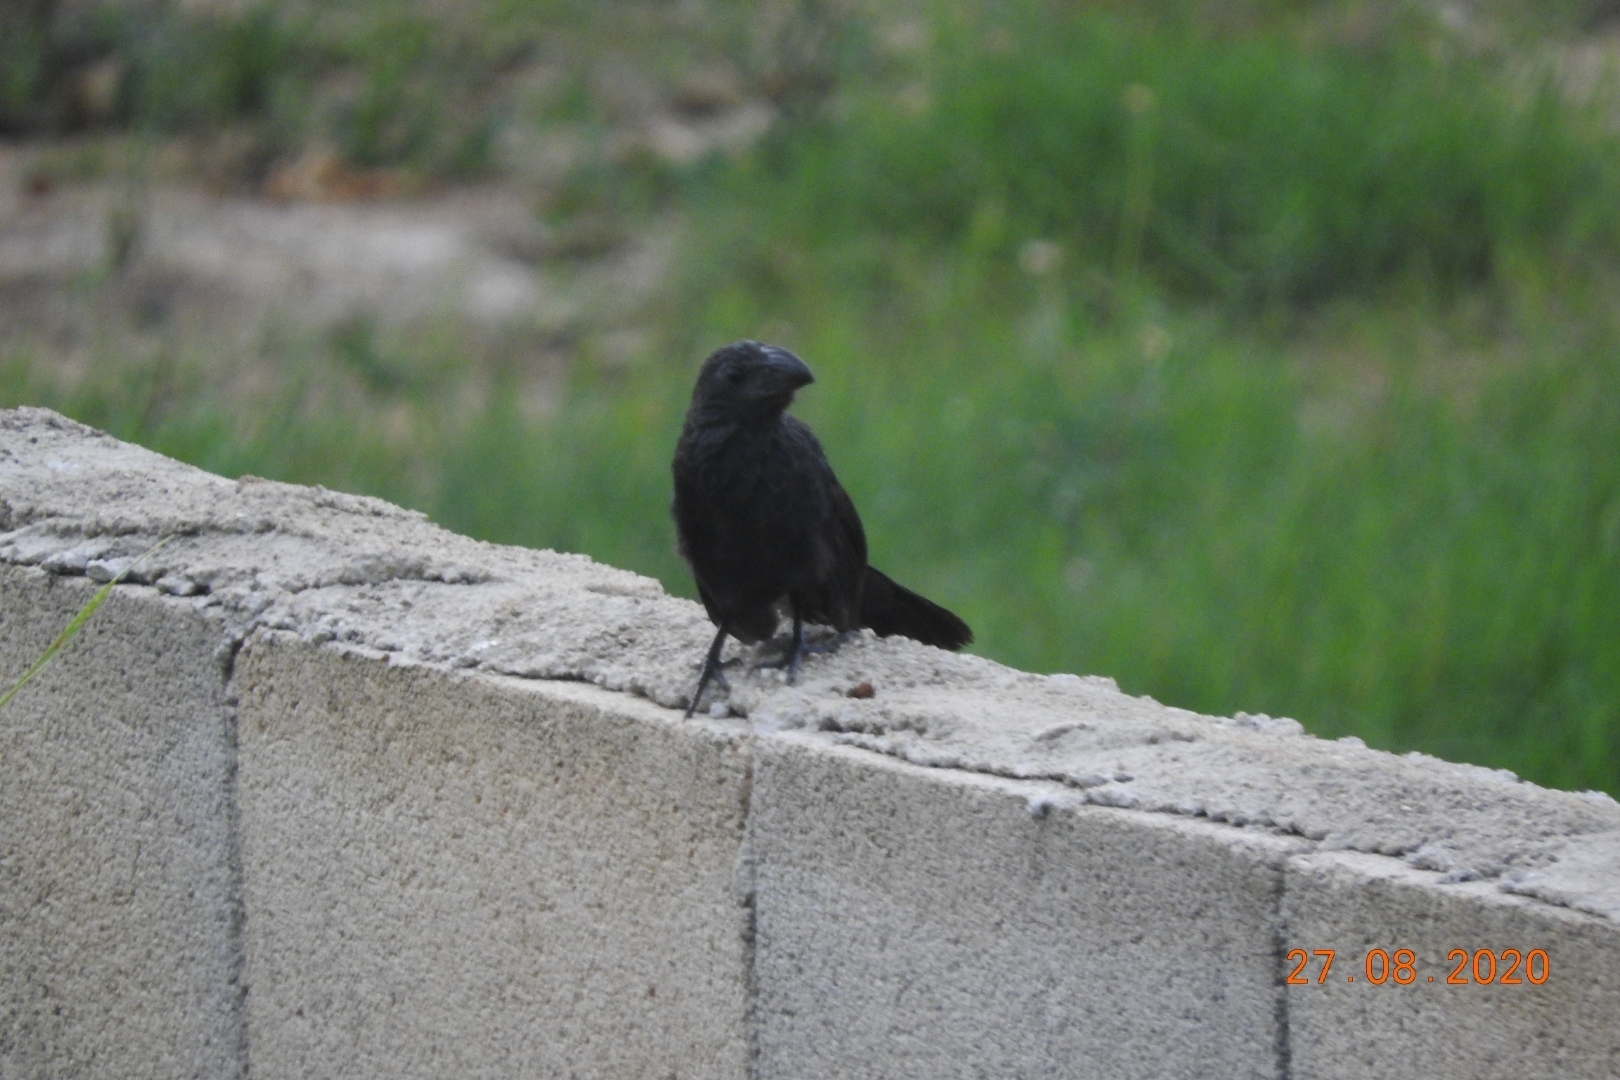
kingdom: Animalia
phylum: Chordata
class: Aves
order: Cuculiformes
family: Cuculidae
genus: Crotophaga
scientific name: Crotophaga sulcirostris
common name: Groove-billed ani
